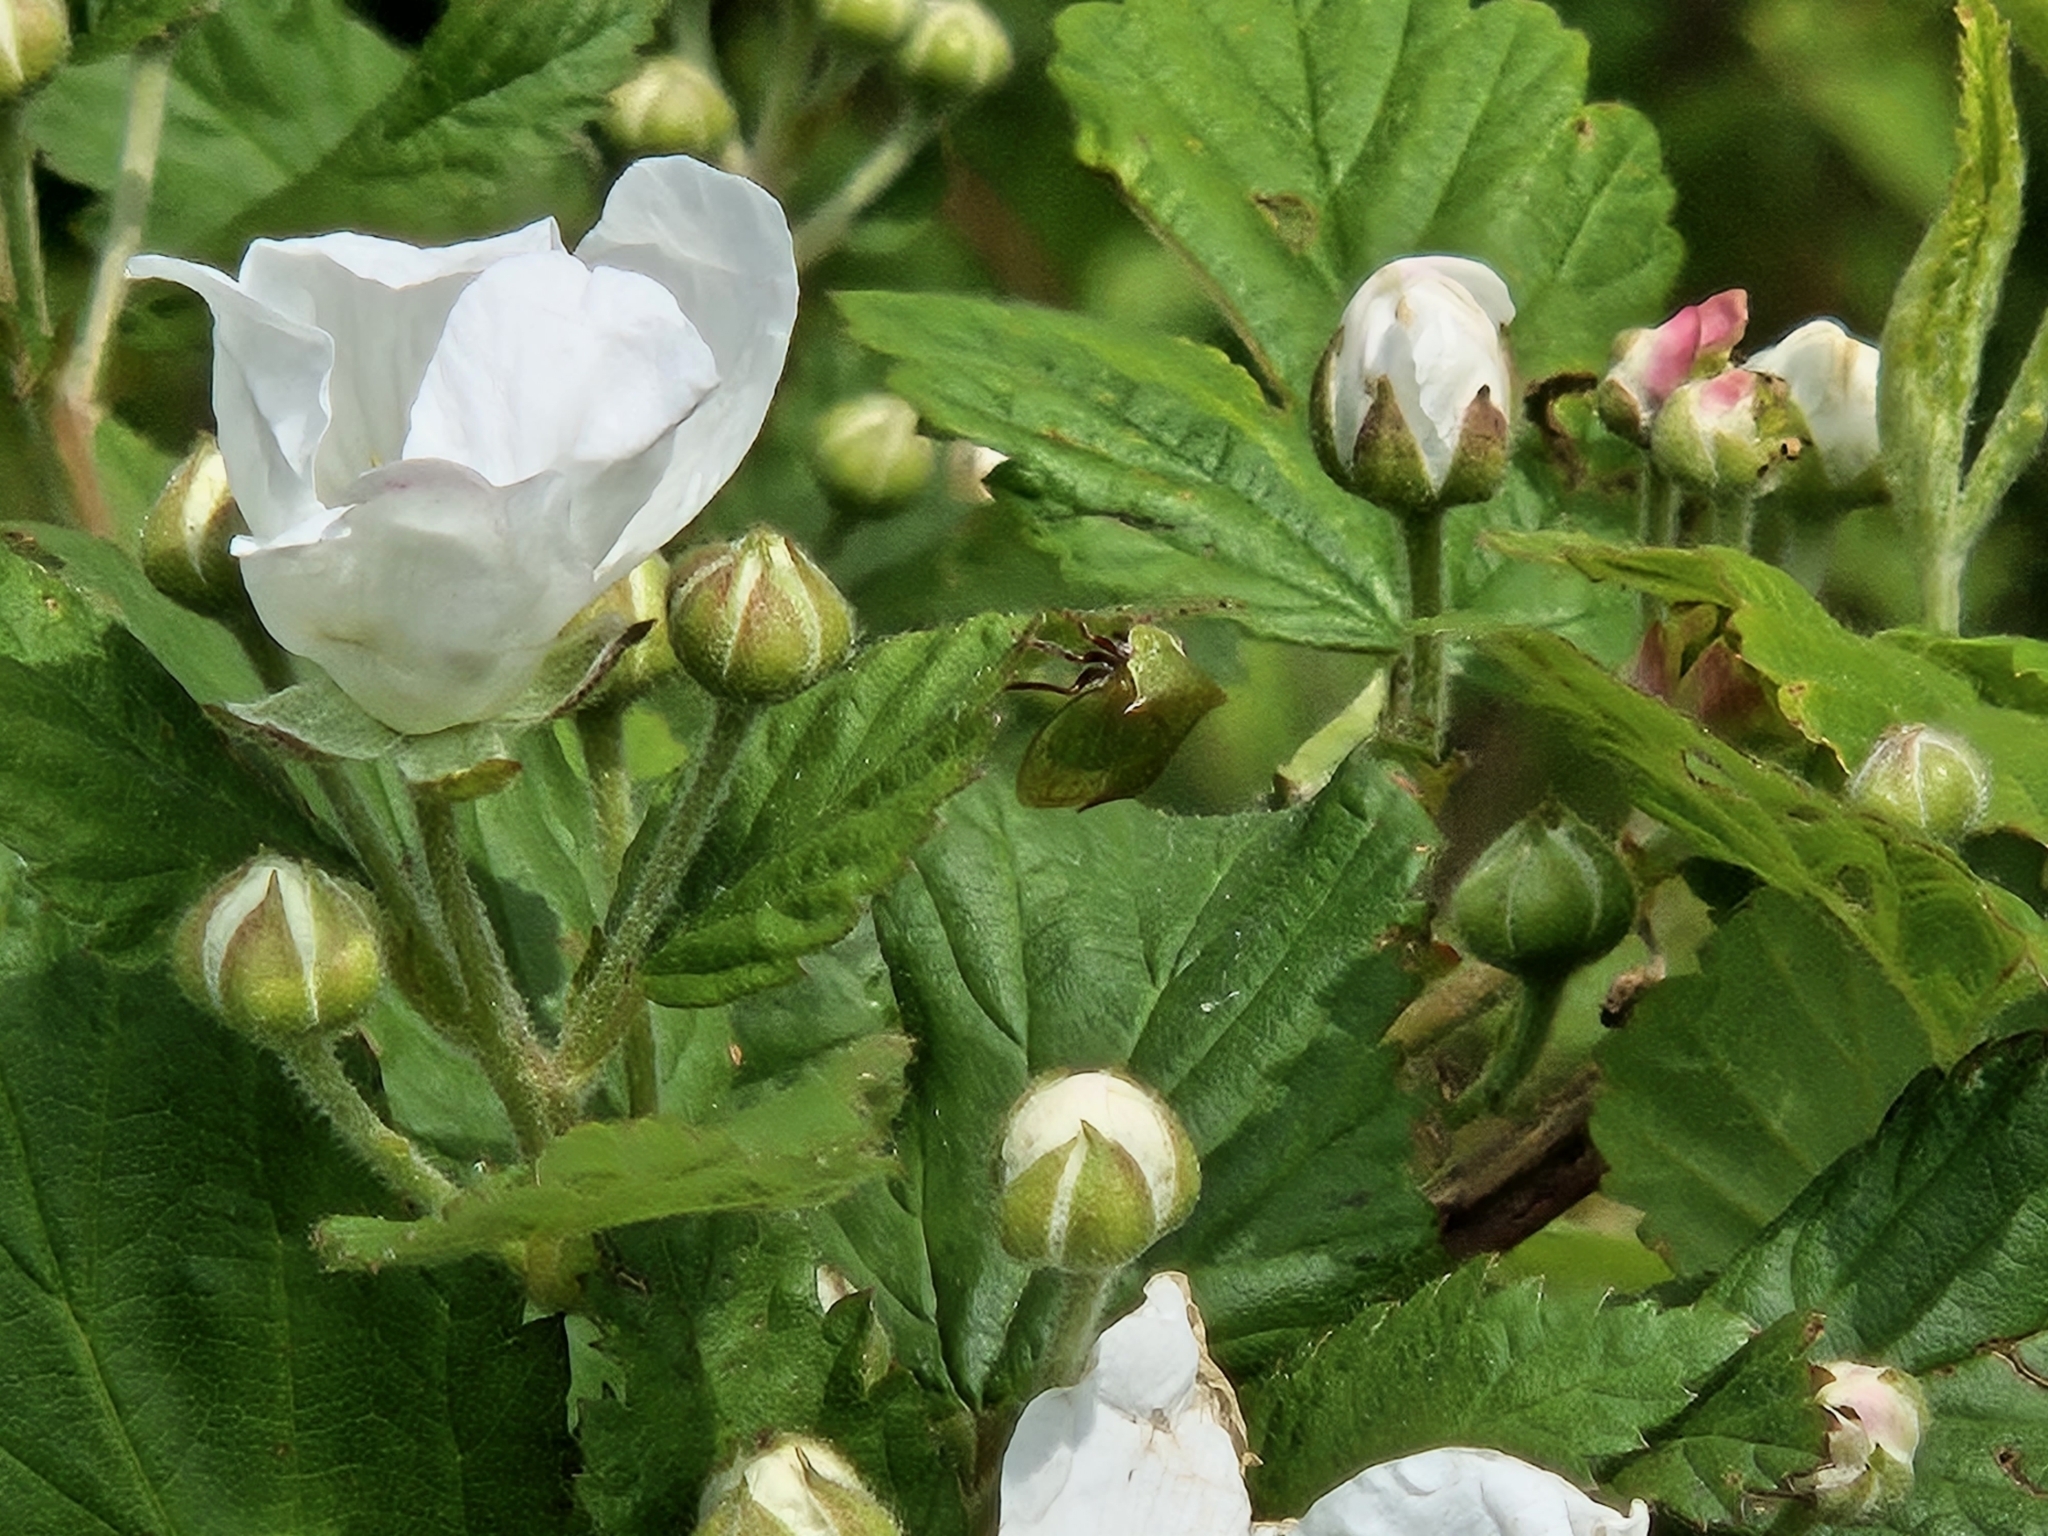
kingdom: Animalia
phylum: Arthropoda
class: Insecta
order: Hemiptera
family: Membracidae
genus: Stictocephala
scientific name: Stictocephala brevitylus
